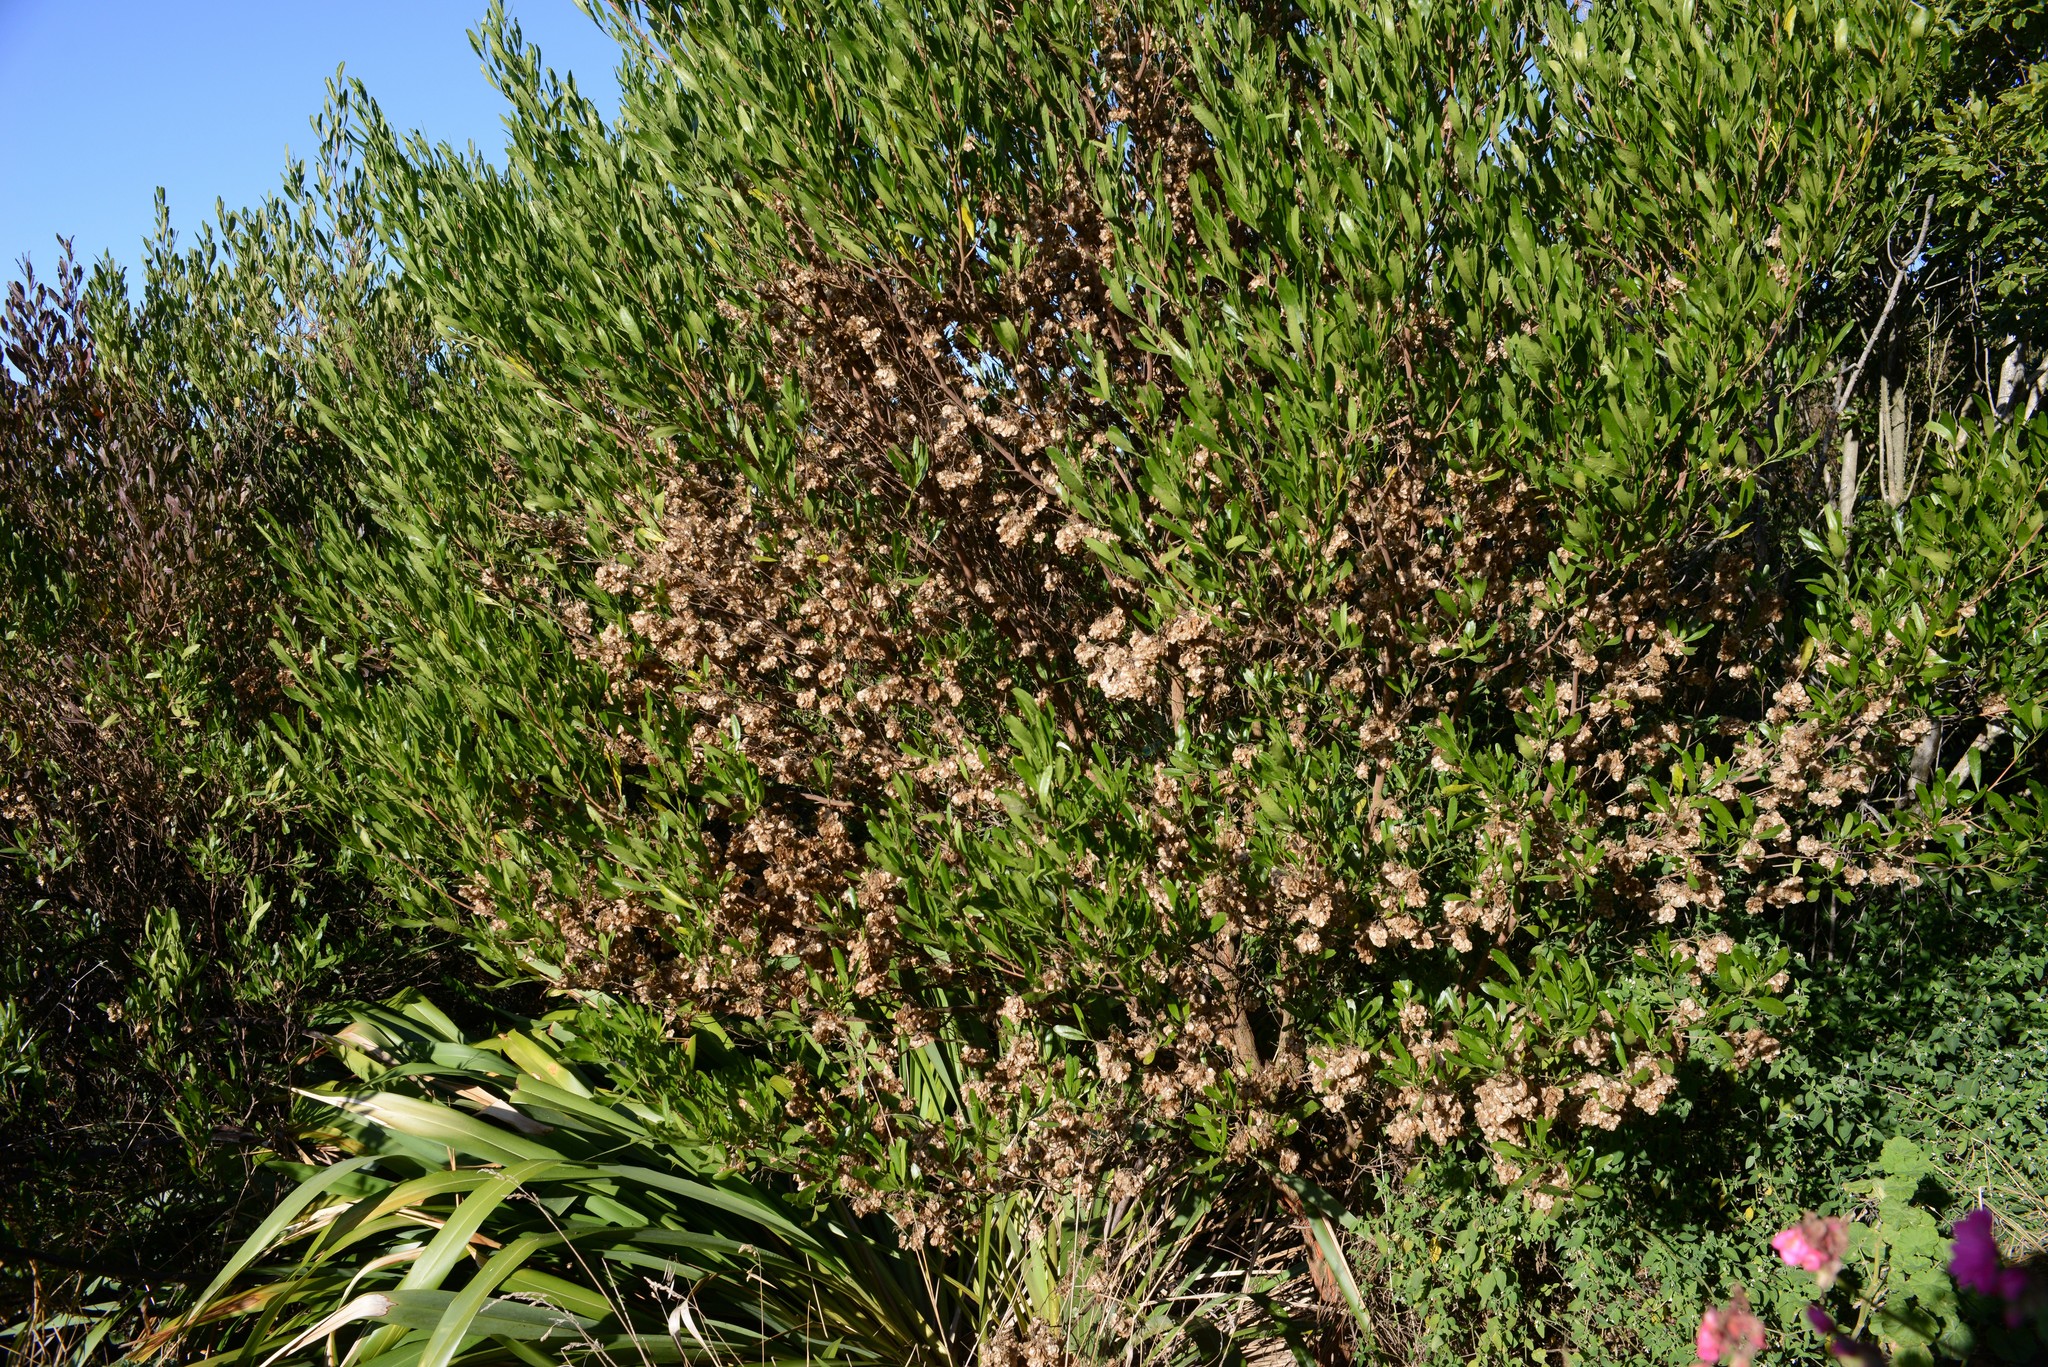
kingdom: Plantae
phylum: Tracheophyta
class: Magnoliopsida
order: Sapindales
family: Sapindaceae
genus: Dodonaea
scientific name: Dodonaea viscosa
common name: Hopbush
